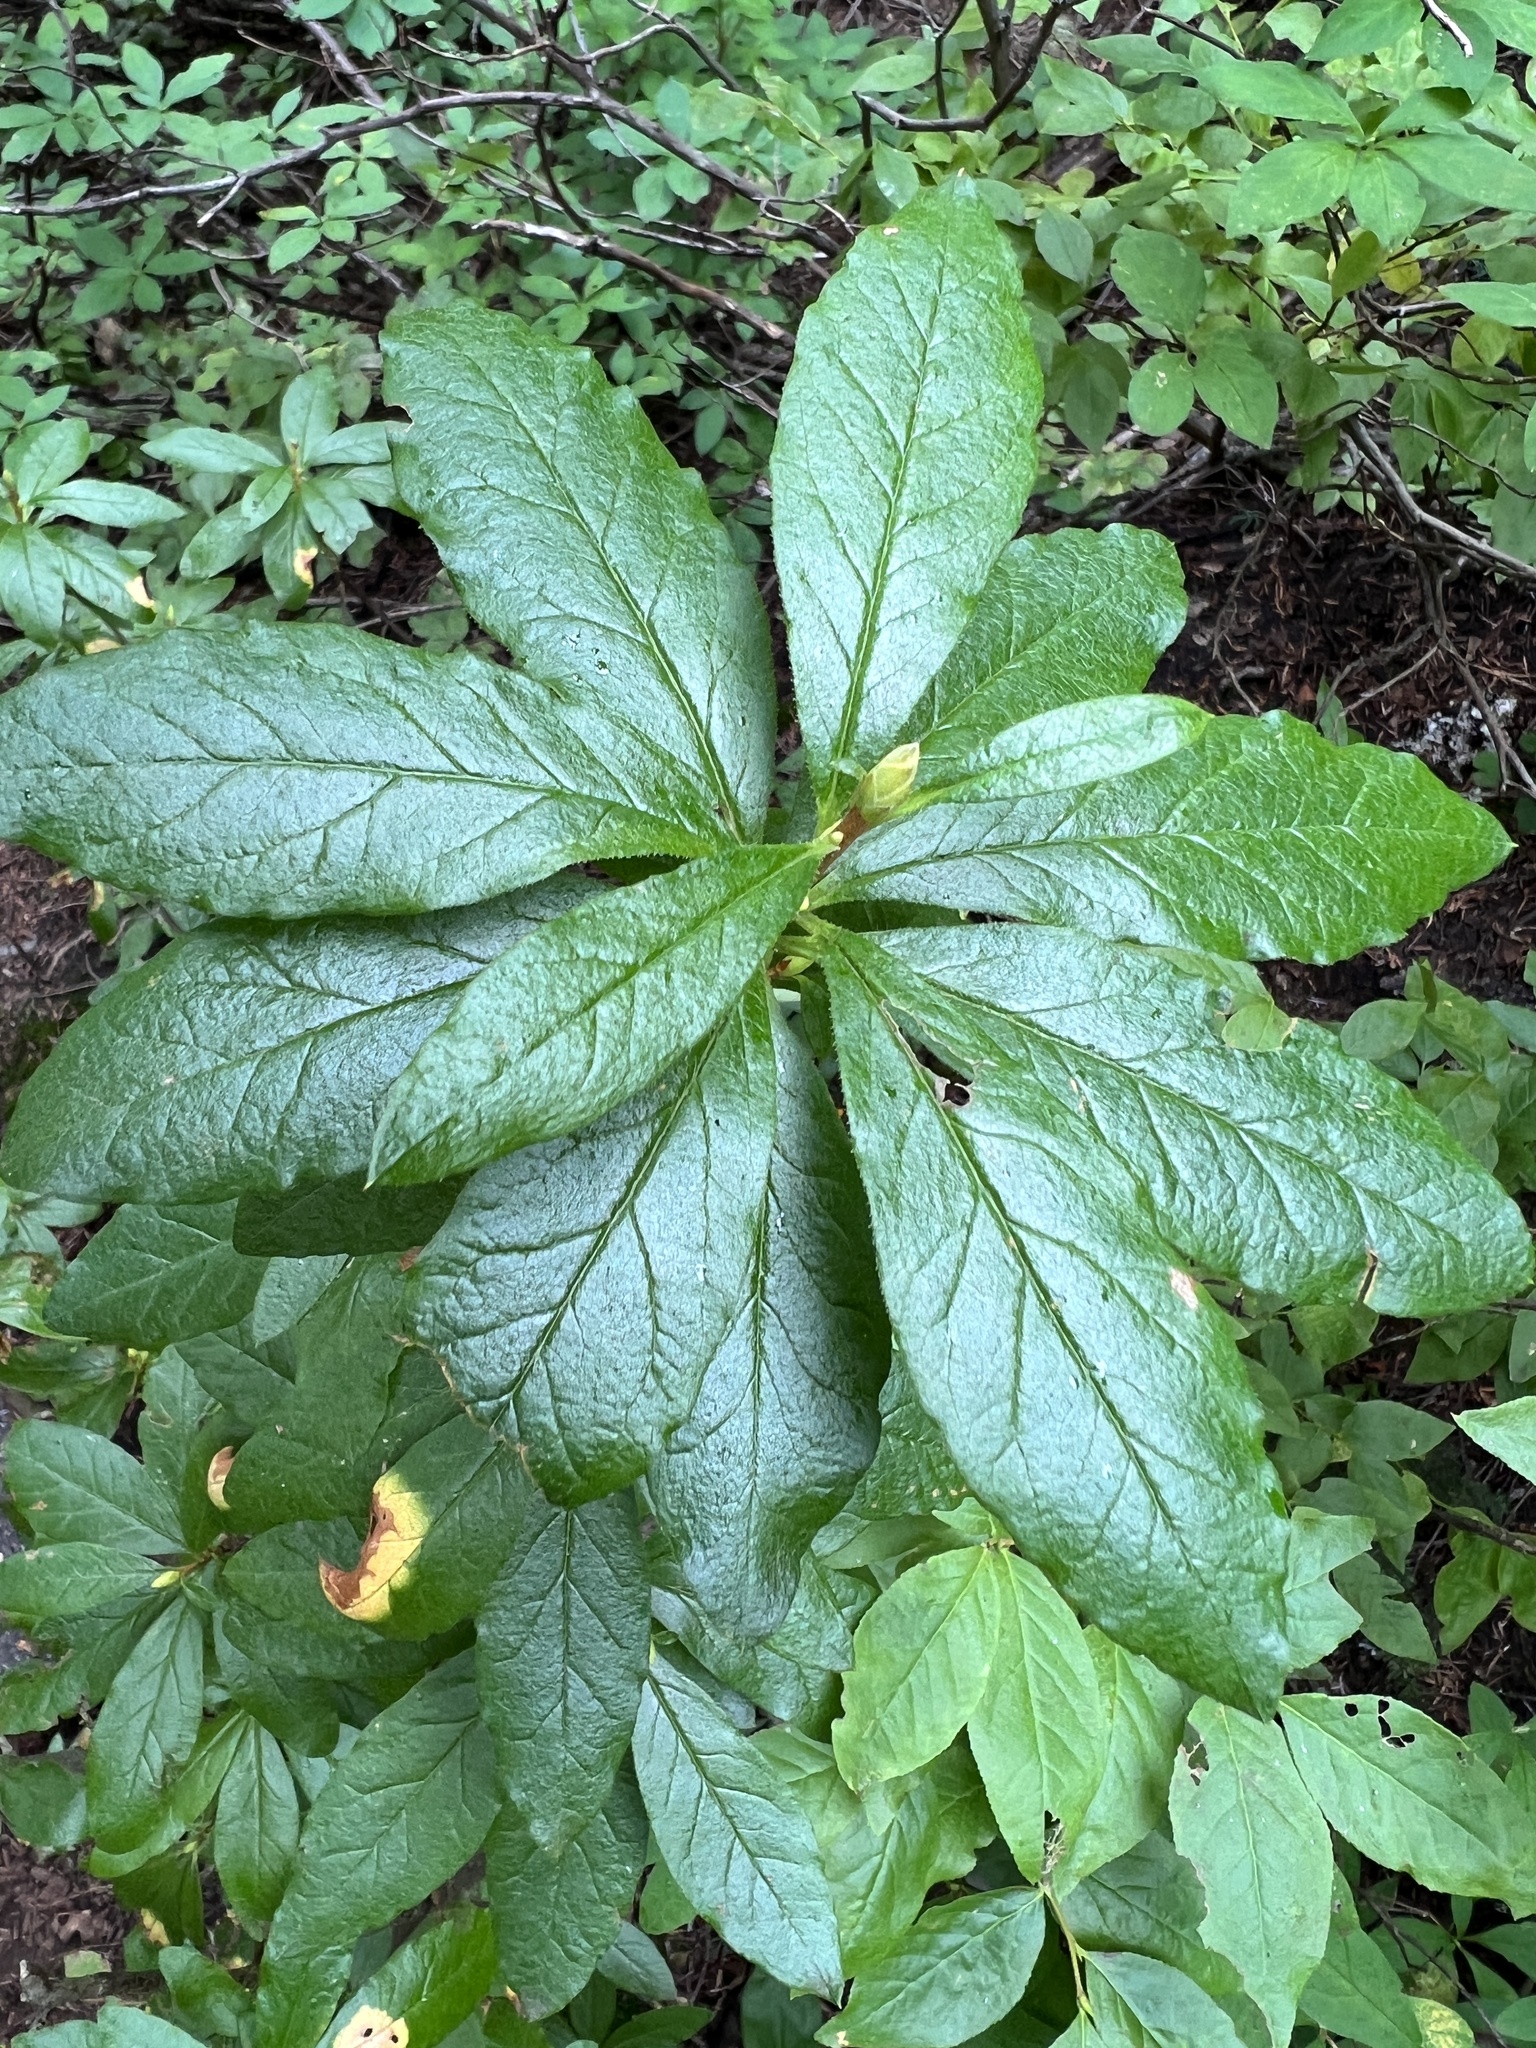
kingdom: Plantae
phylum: Tracheophyta
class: Magnoliopsida
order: Ericales
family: Ericaceae
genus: Rhododendron
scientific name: Rhododendron albiflorum
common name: White rhododendron
